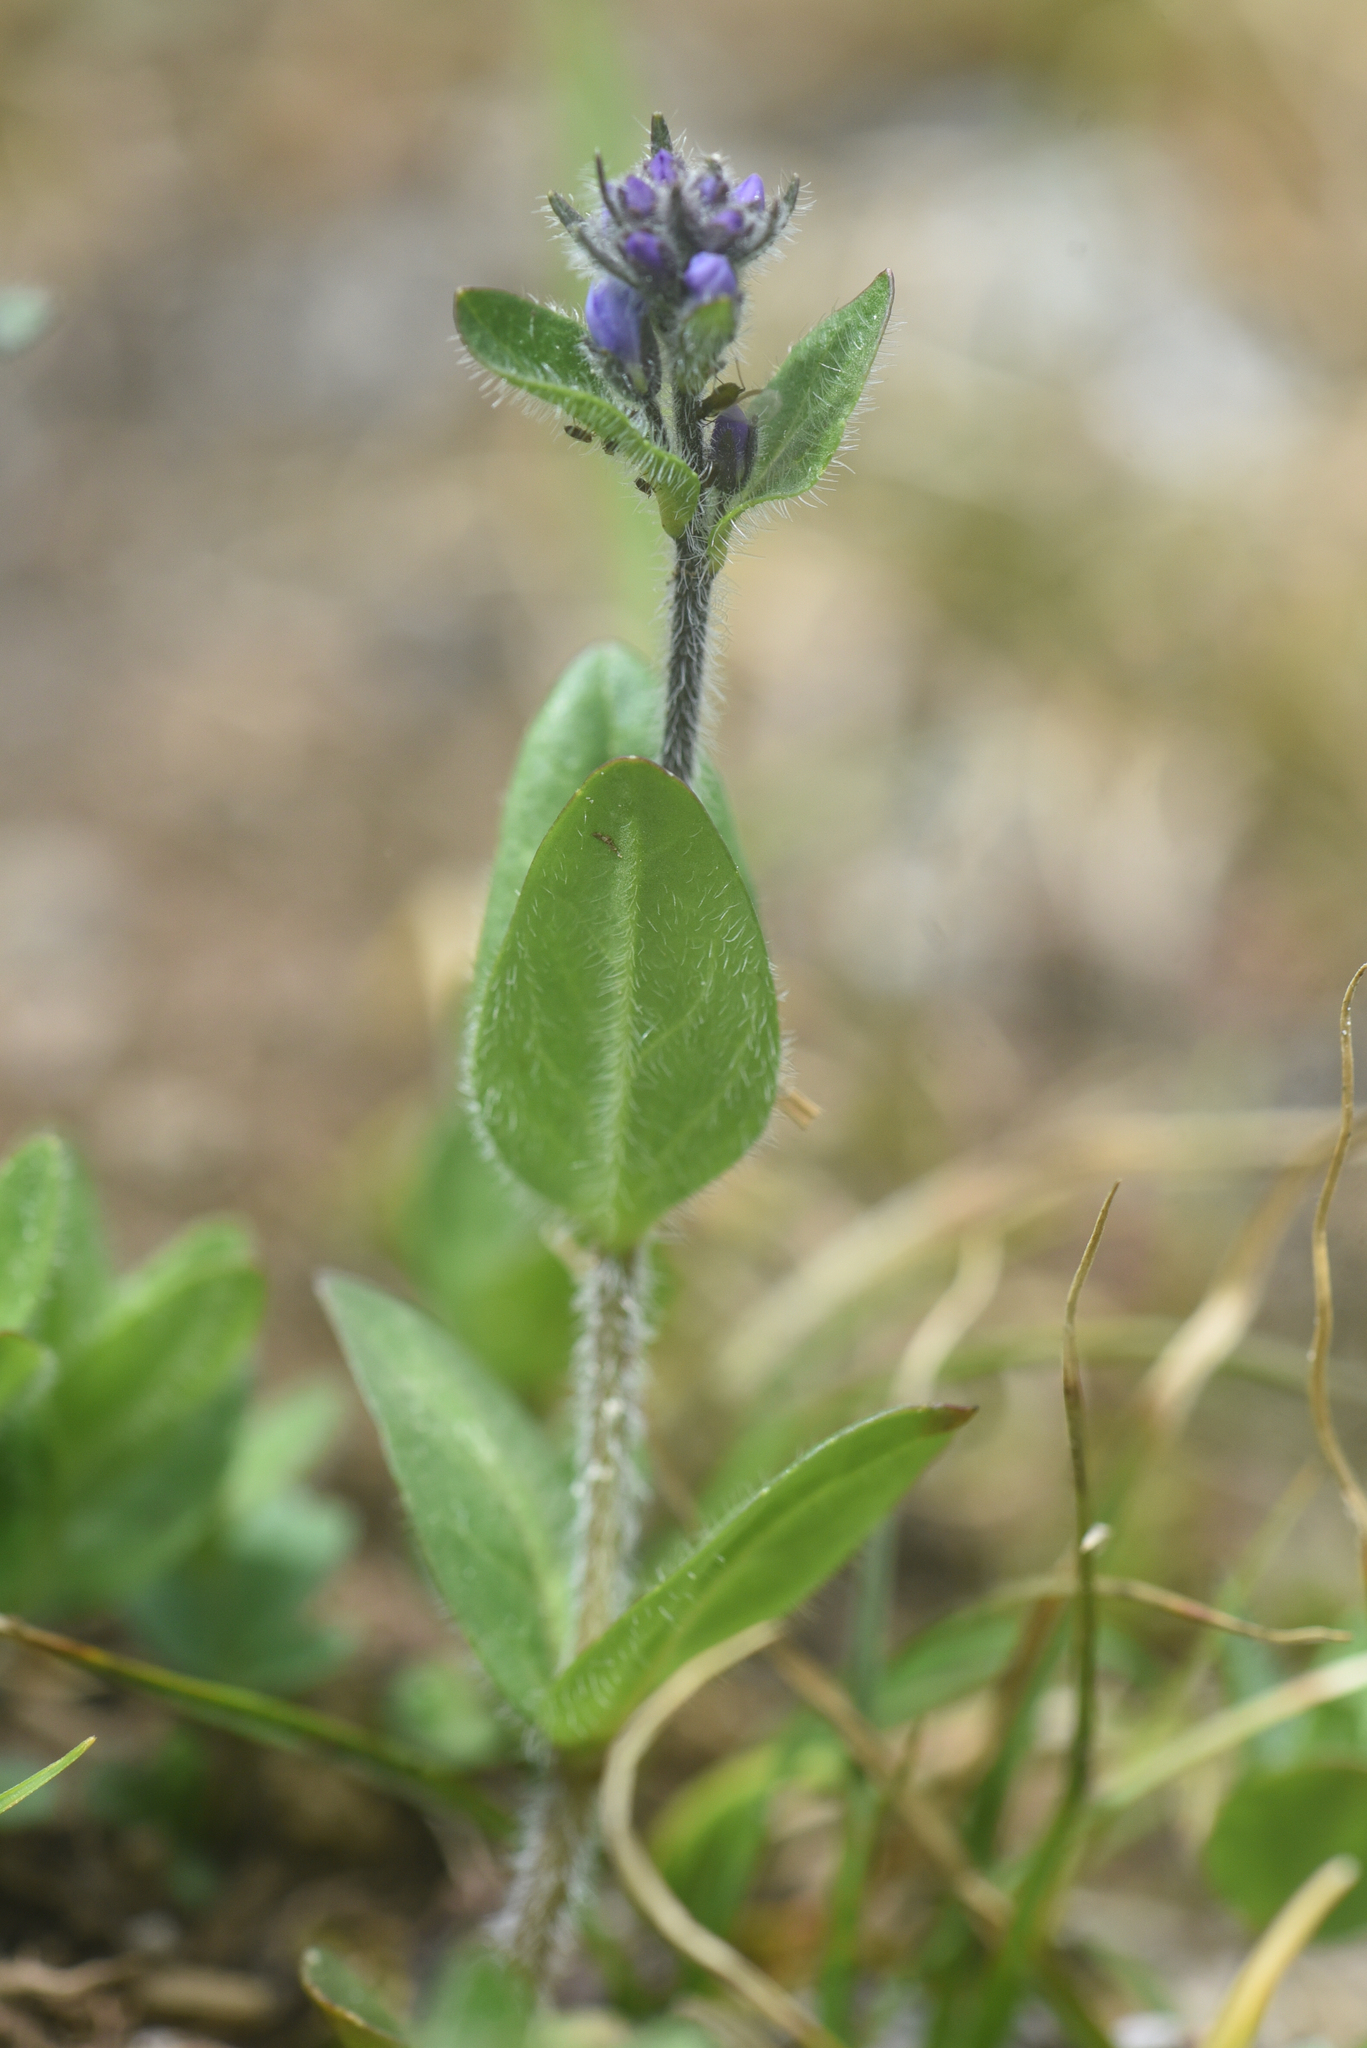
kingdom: Plantae
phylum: Tracheophyta
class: Magnoliopsida
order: Lamiales
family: Plantaginaceae
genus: Veronica
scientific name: Veronica wormskjoldii
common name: American alpine speedwell
